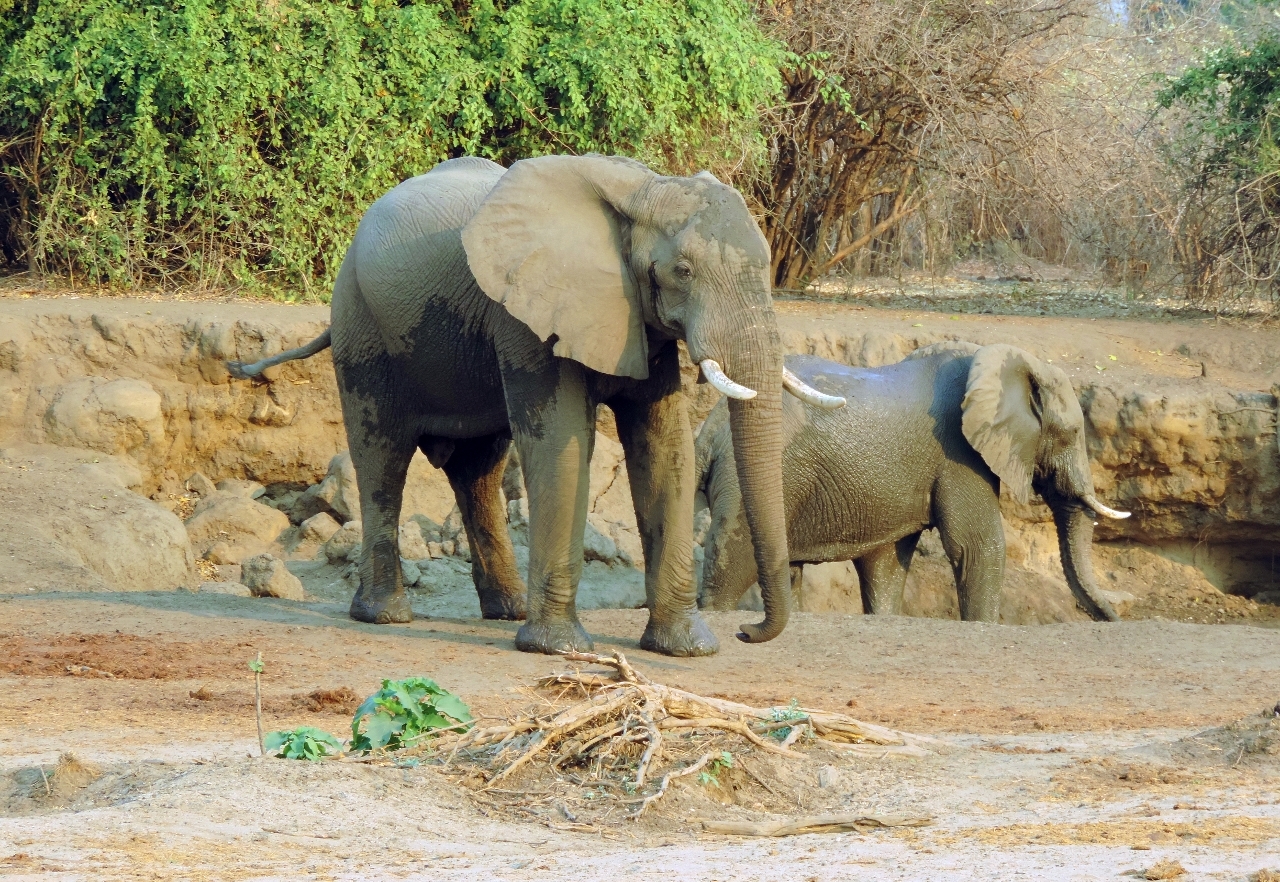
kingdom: Animalia
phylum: Chordata
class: Mammalia
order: Proboscidea
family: Elephantidae
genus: Loxodonta
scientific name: Loxodonta africana
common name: African elephant
